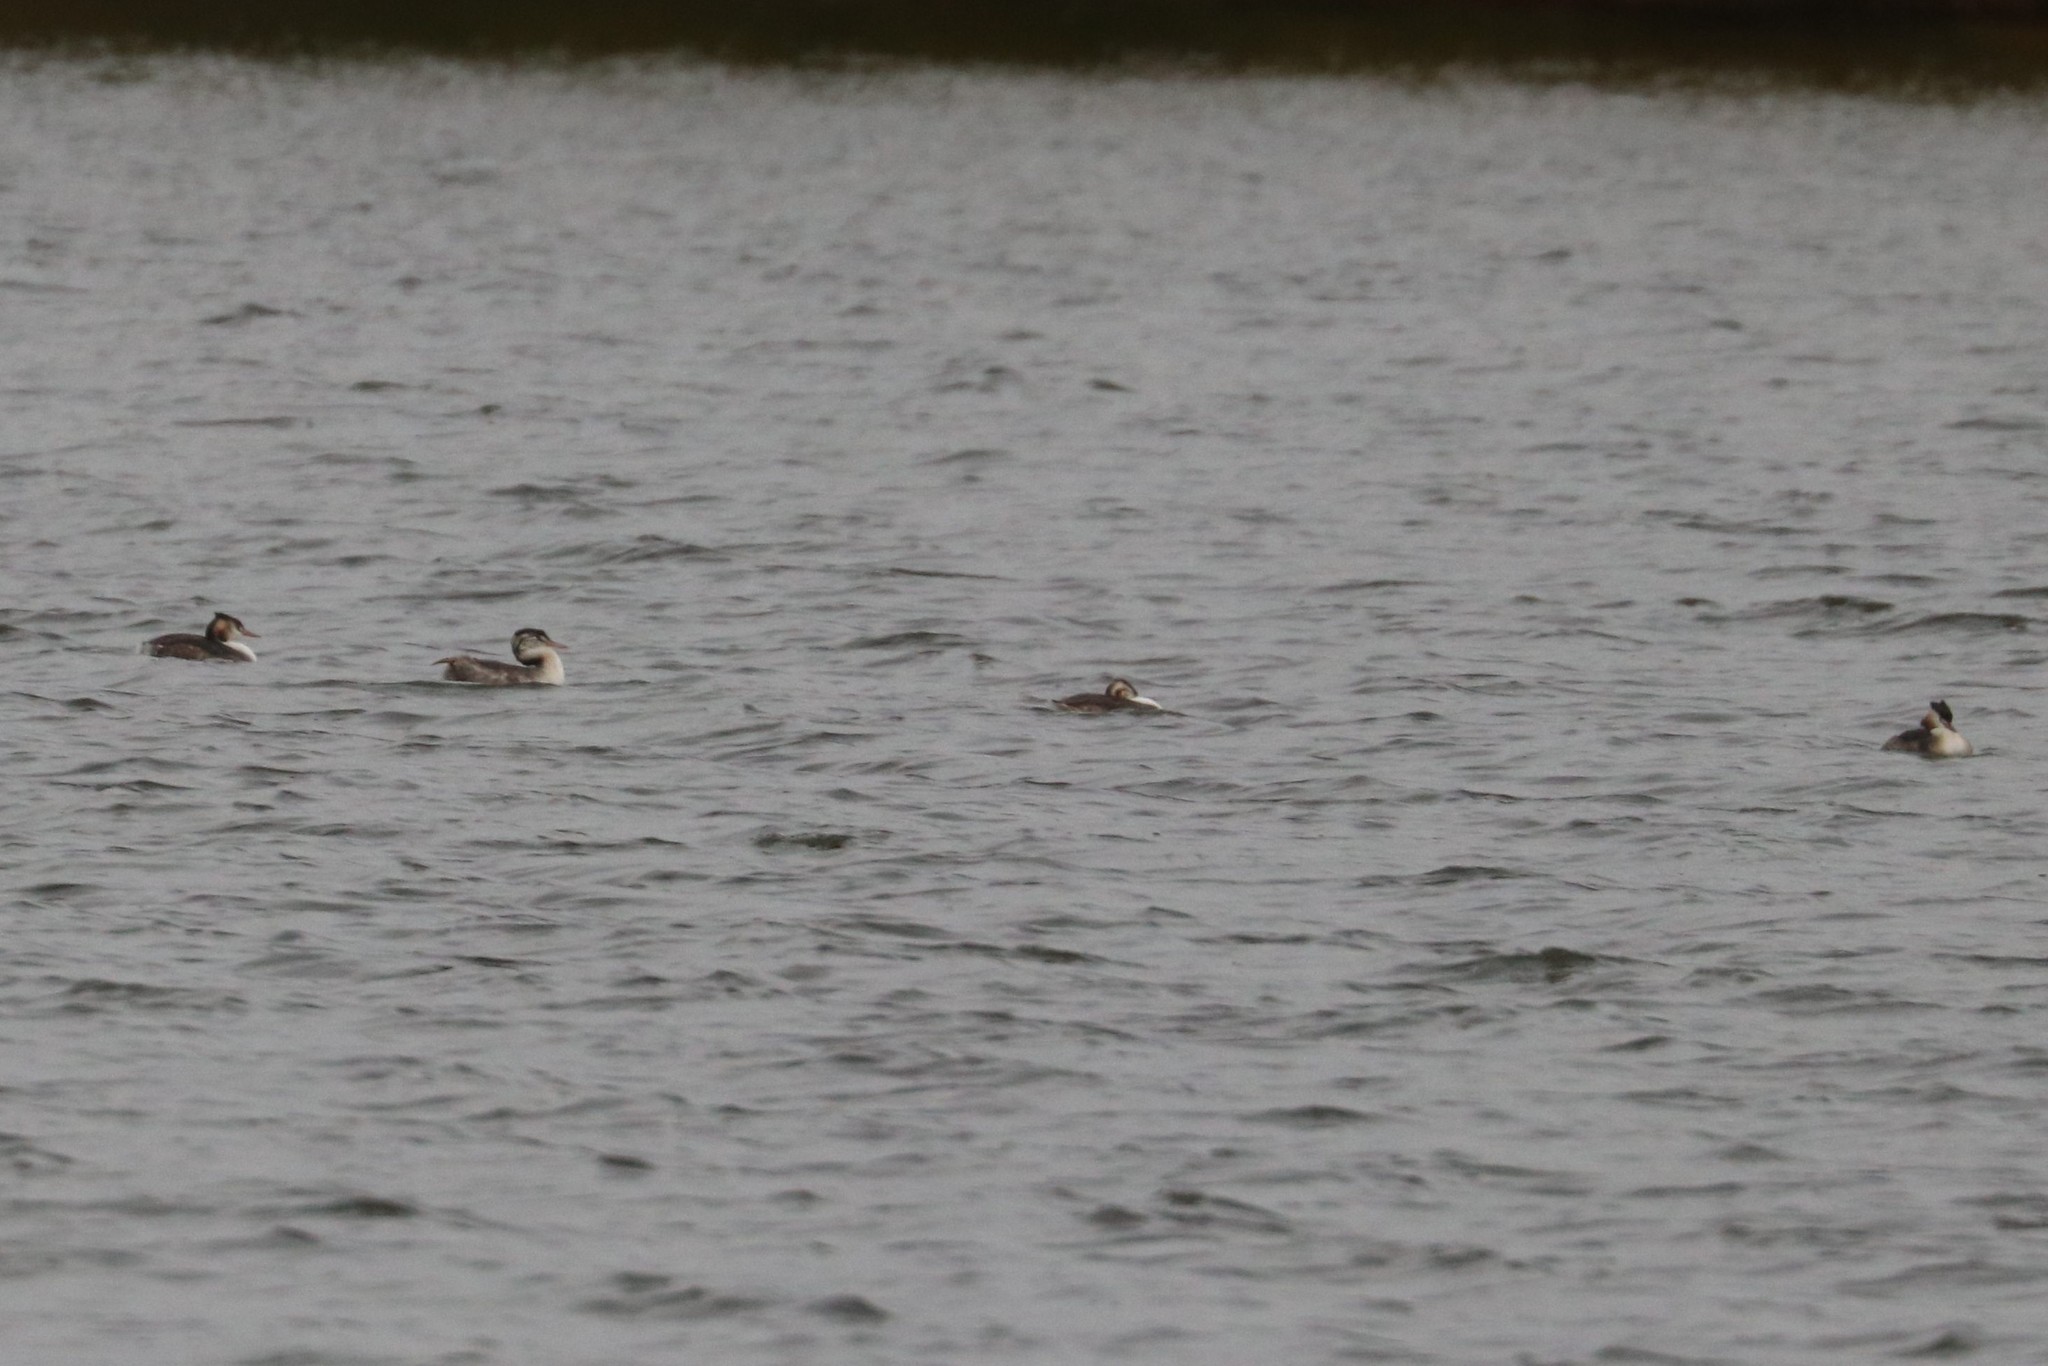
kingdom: Animalia
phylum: Chordata
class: Aves
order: Podicipediformes
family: Podicipedidae
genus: Podiceps
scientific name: Podiceps cristatus
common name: Great crested grebe
